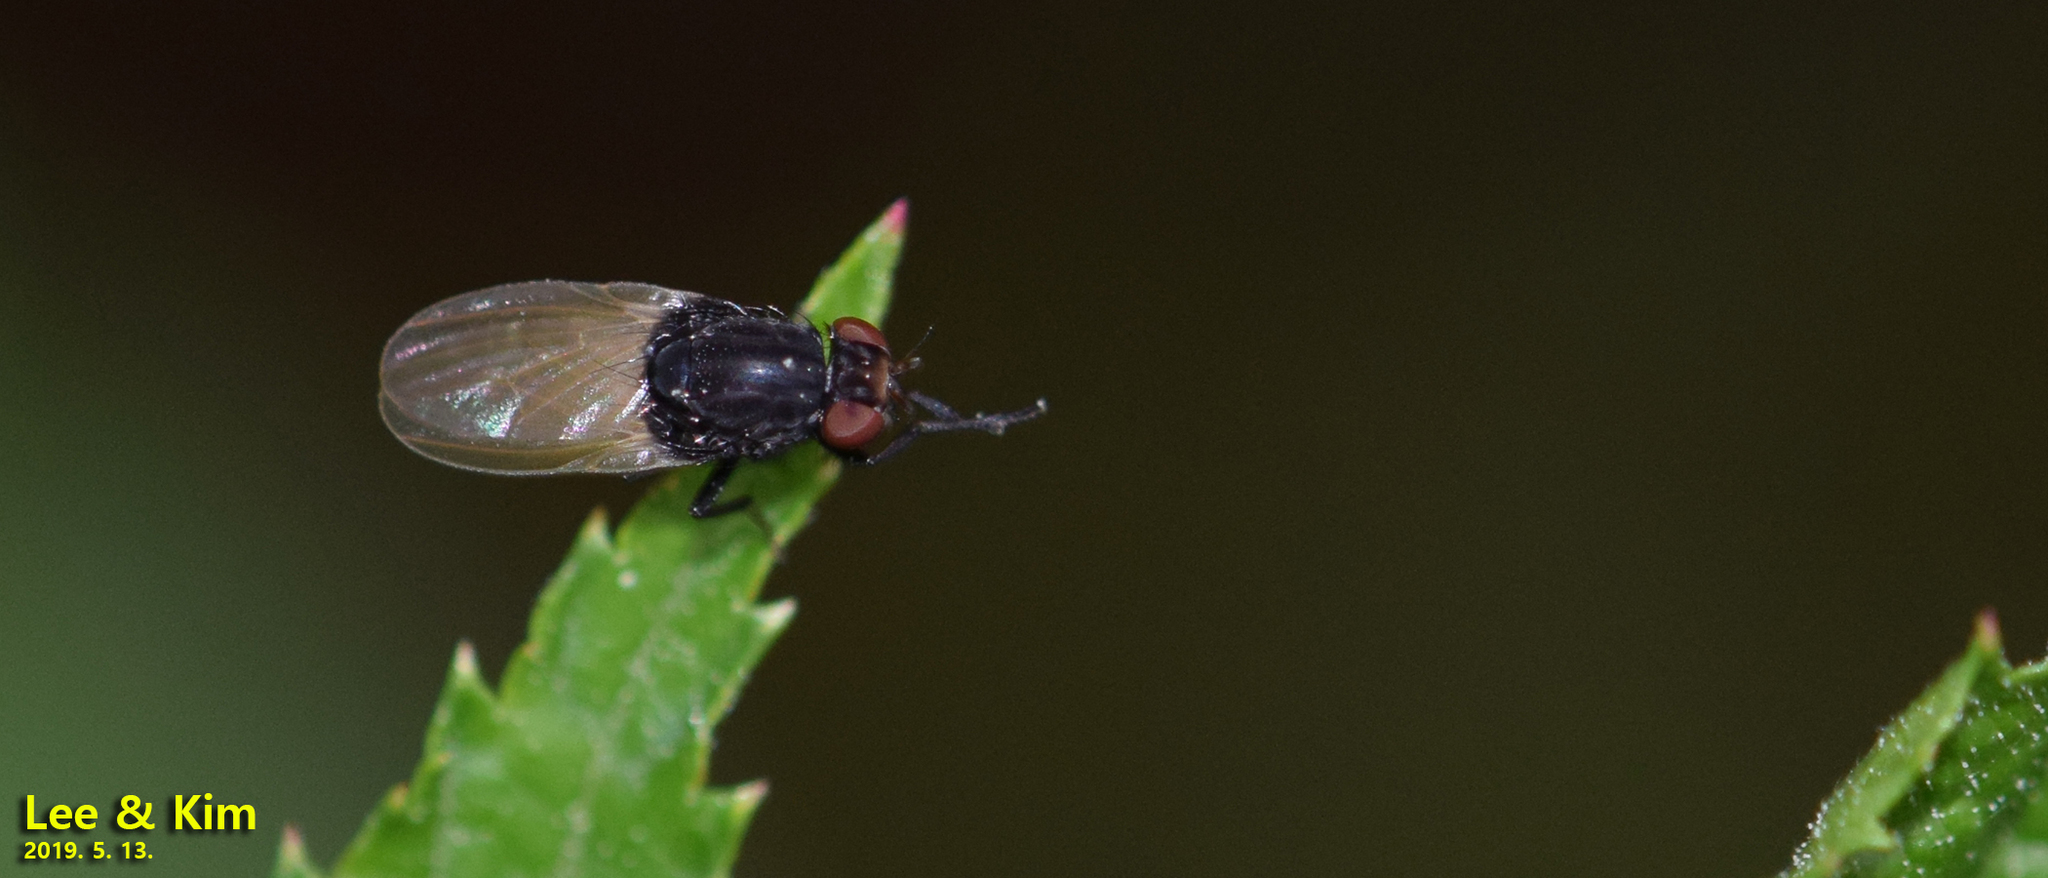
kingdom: Animalia
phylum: Arthropoda
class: Insecta
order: Diptera
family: Lauxaniidae
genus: Minettia
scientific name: Minettia longipennis
